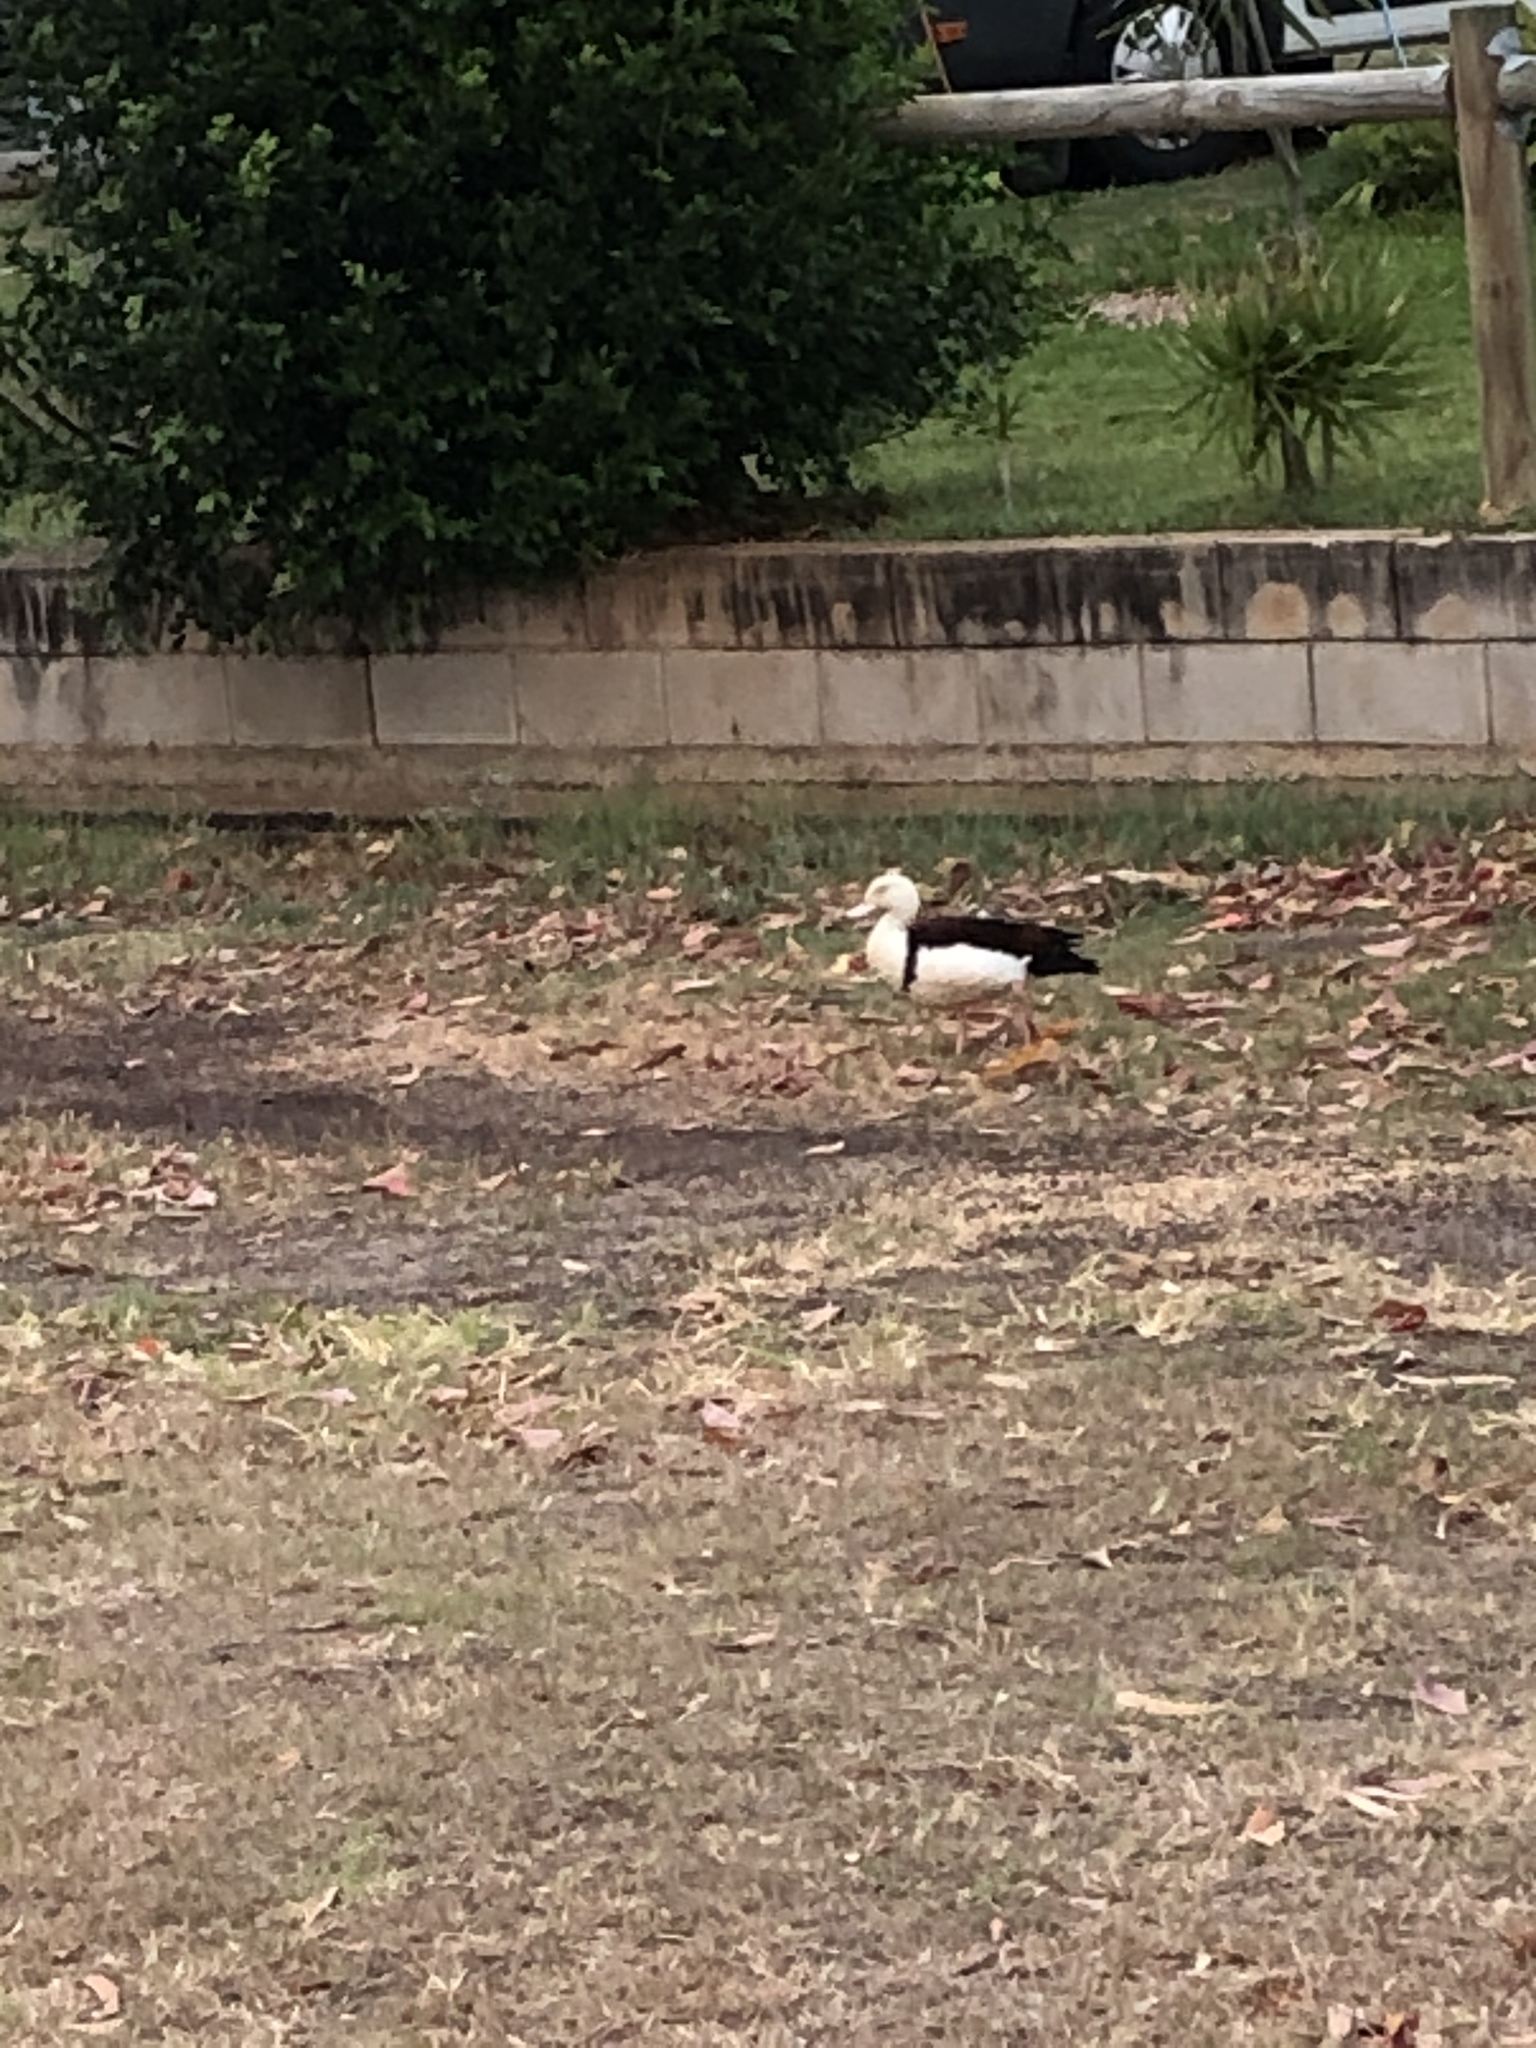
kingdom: Animalia
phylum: Chordata
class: Aves
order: Anseriformes
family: Anatidae
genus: Radjah
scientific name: Radjah radjah
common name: Radjah shelduck
